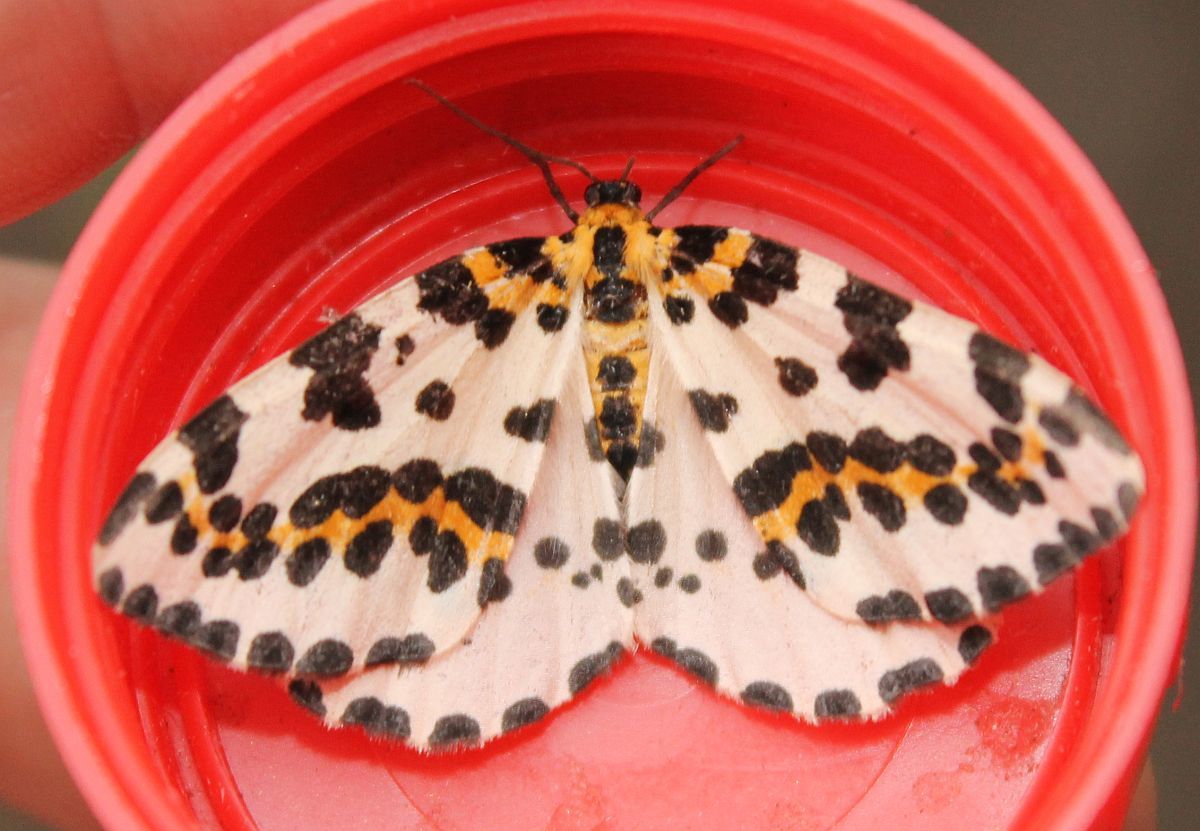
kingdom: Animalia
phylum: Arthropoda
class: Insecta
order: Lepidoptera
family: Geometridae
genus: Abraxas
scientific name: Abraxas grossulariata
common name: Magpie
